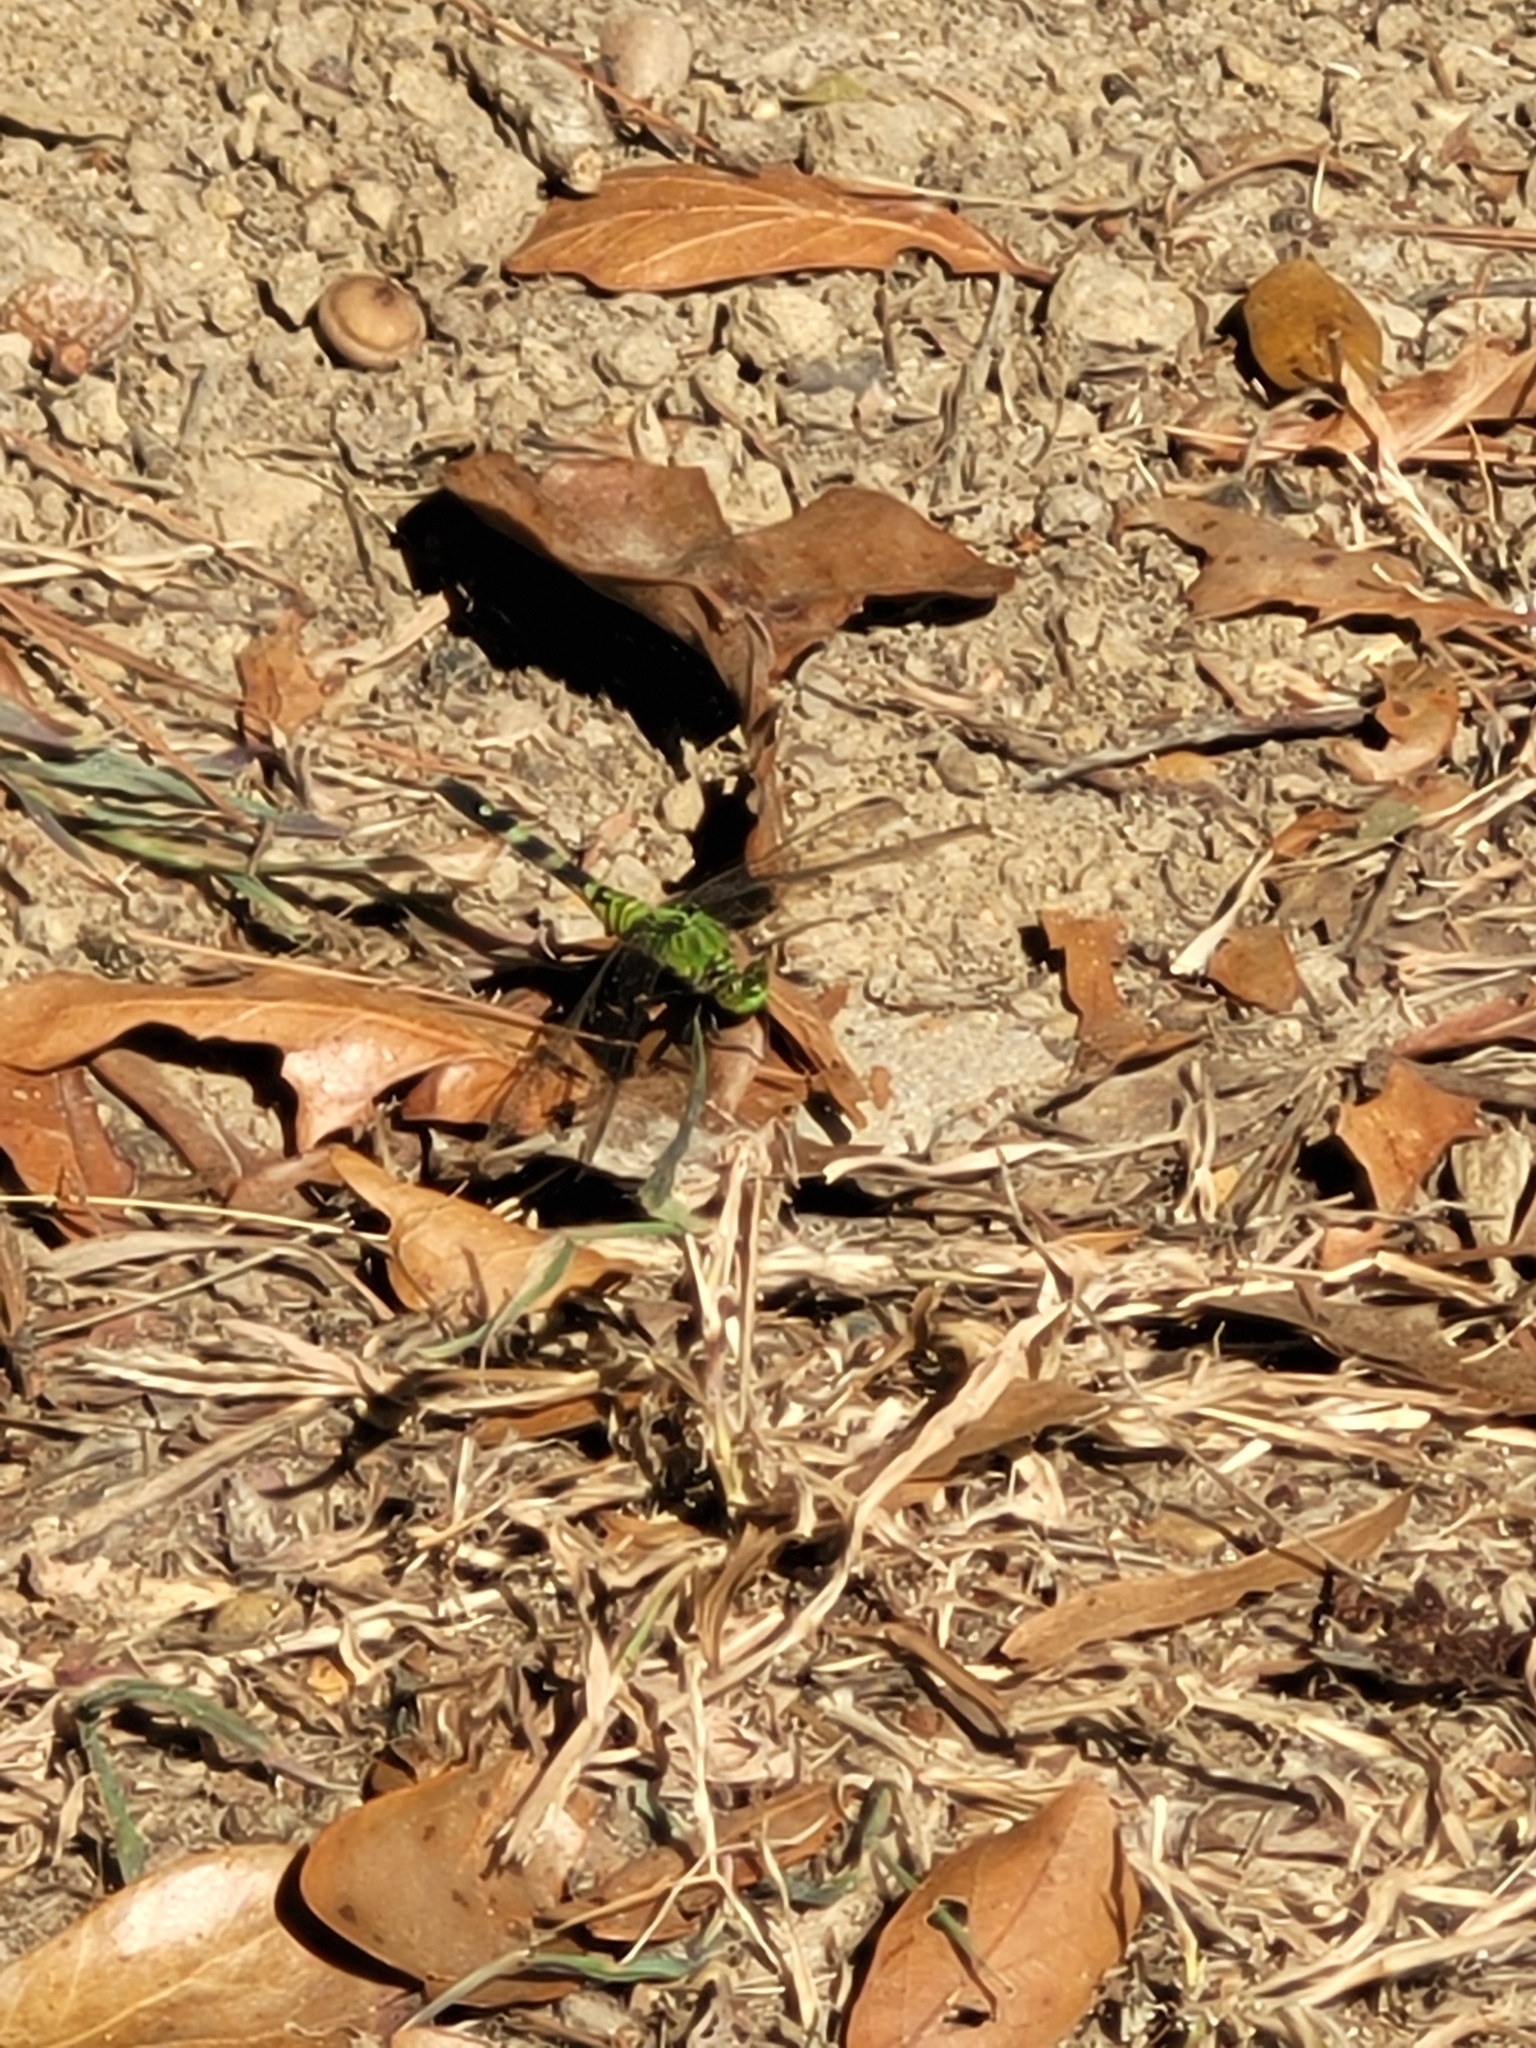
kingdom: Animalia
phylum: Arthropoda
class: Insecta
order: Odonata
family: Libellulidae
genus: Erythemis
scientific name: Erythemis simplicicollis
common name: Eastern pondhawk
